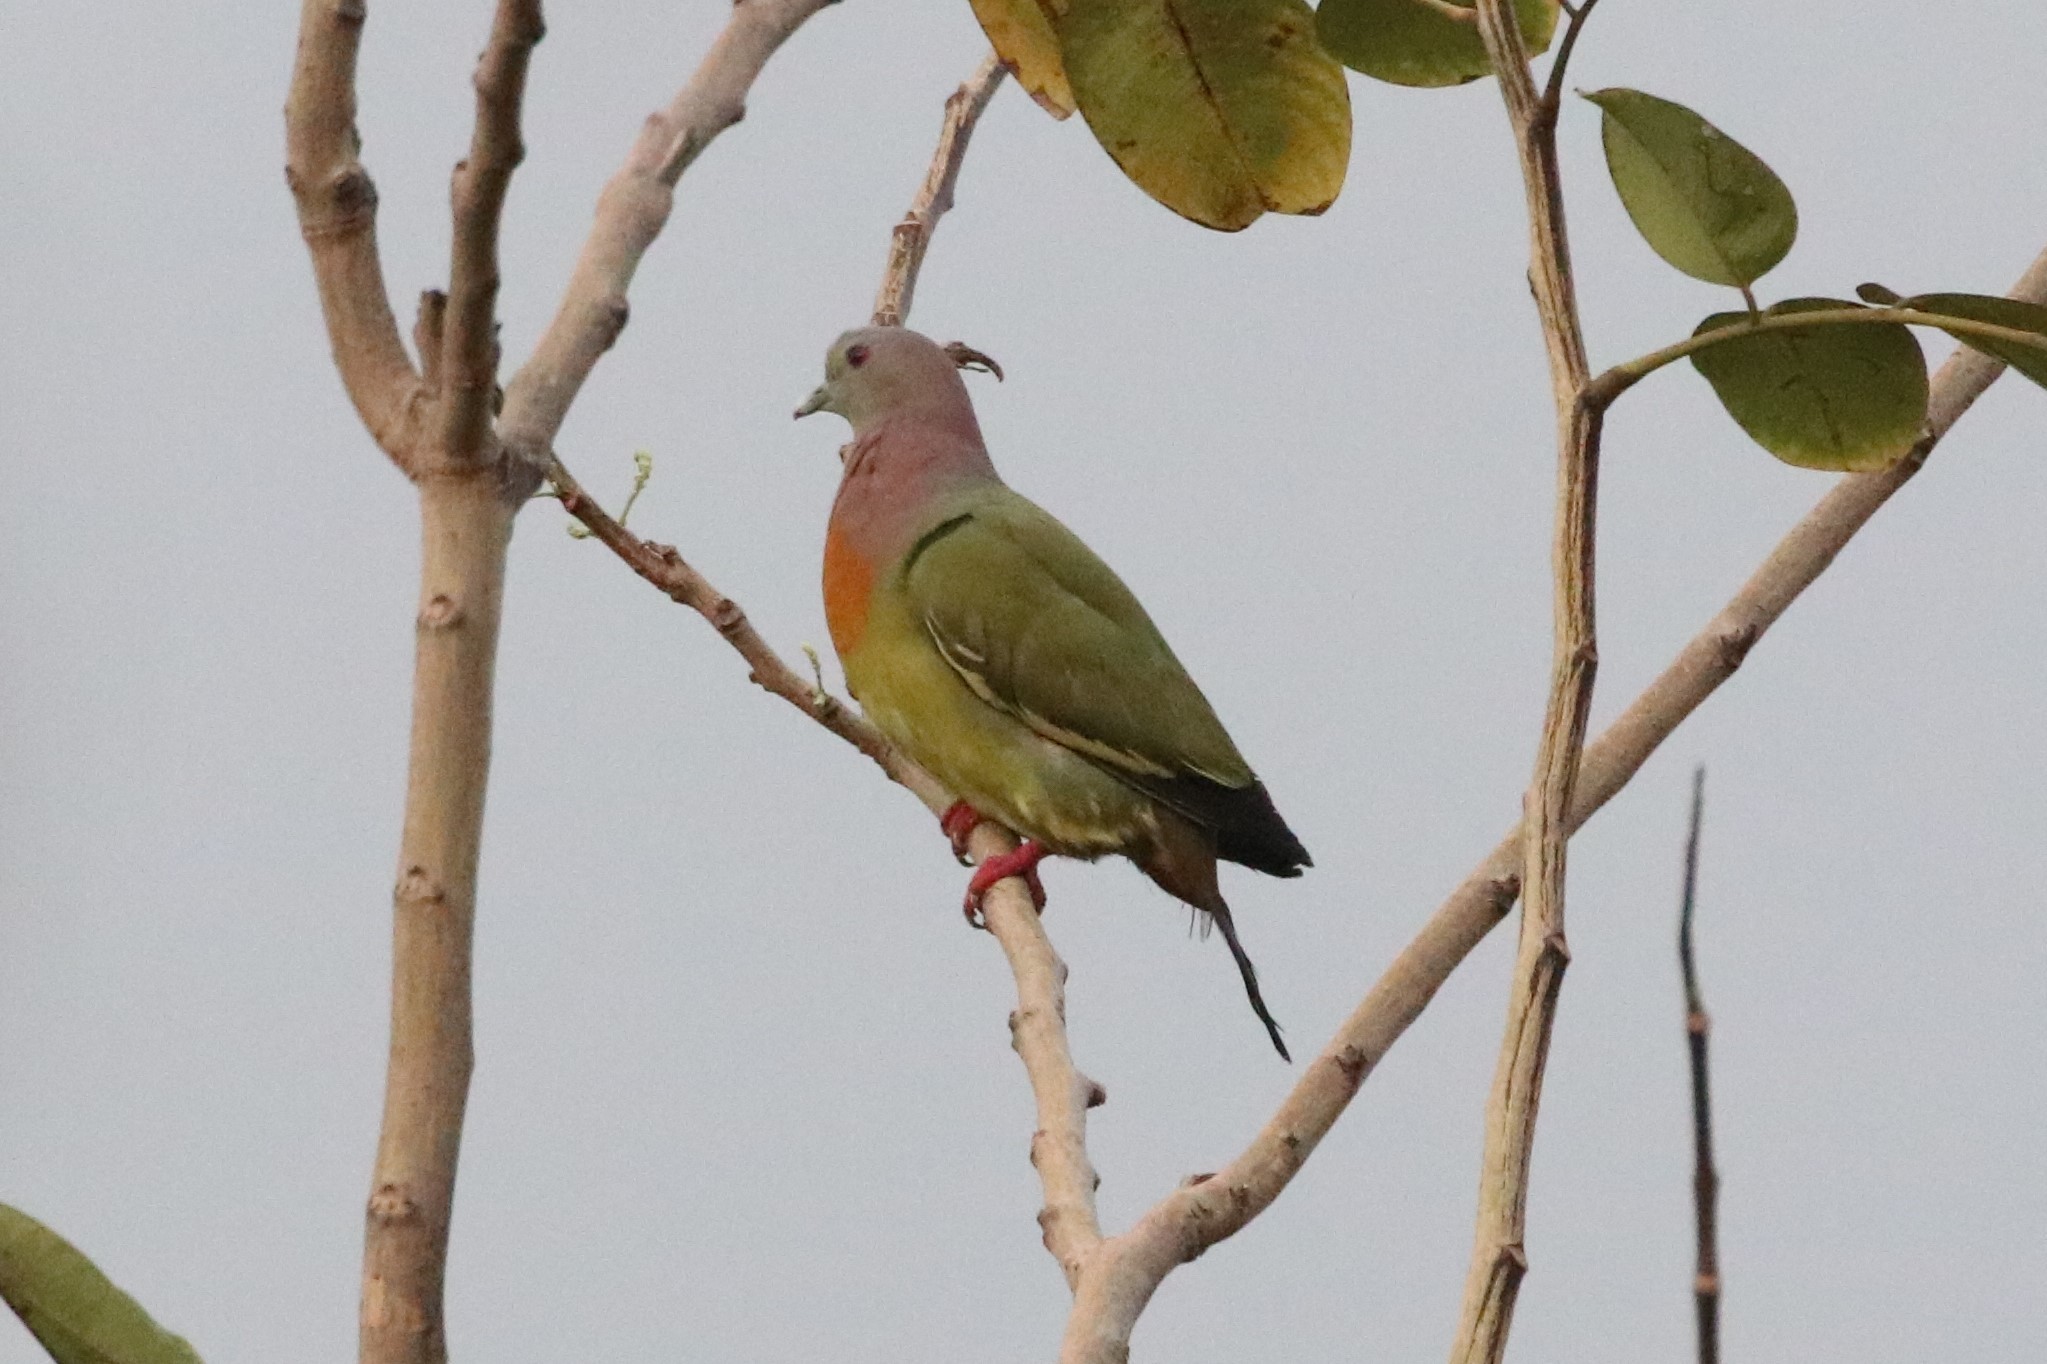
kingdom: Animalia
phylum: Chordata
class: Aves
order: Columbiformes
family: Columbidae
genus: Treron
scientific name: Treron vernans
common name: Pink-necked green pigeon
